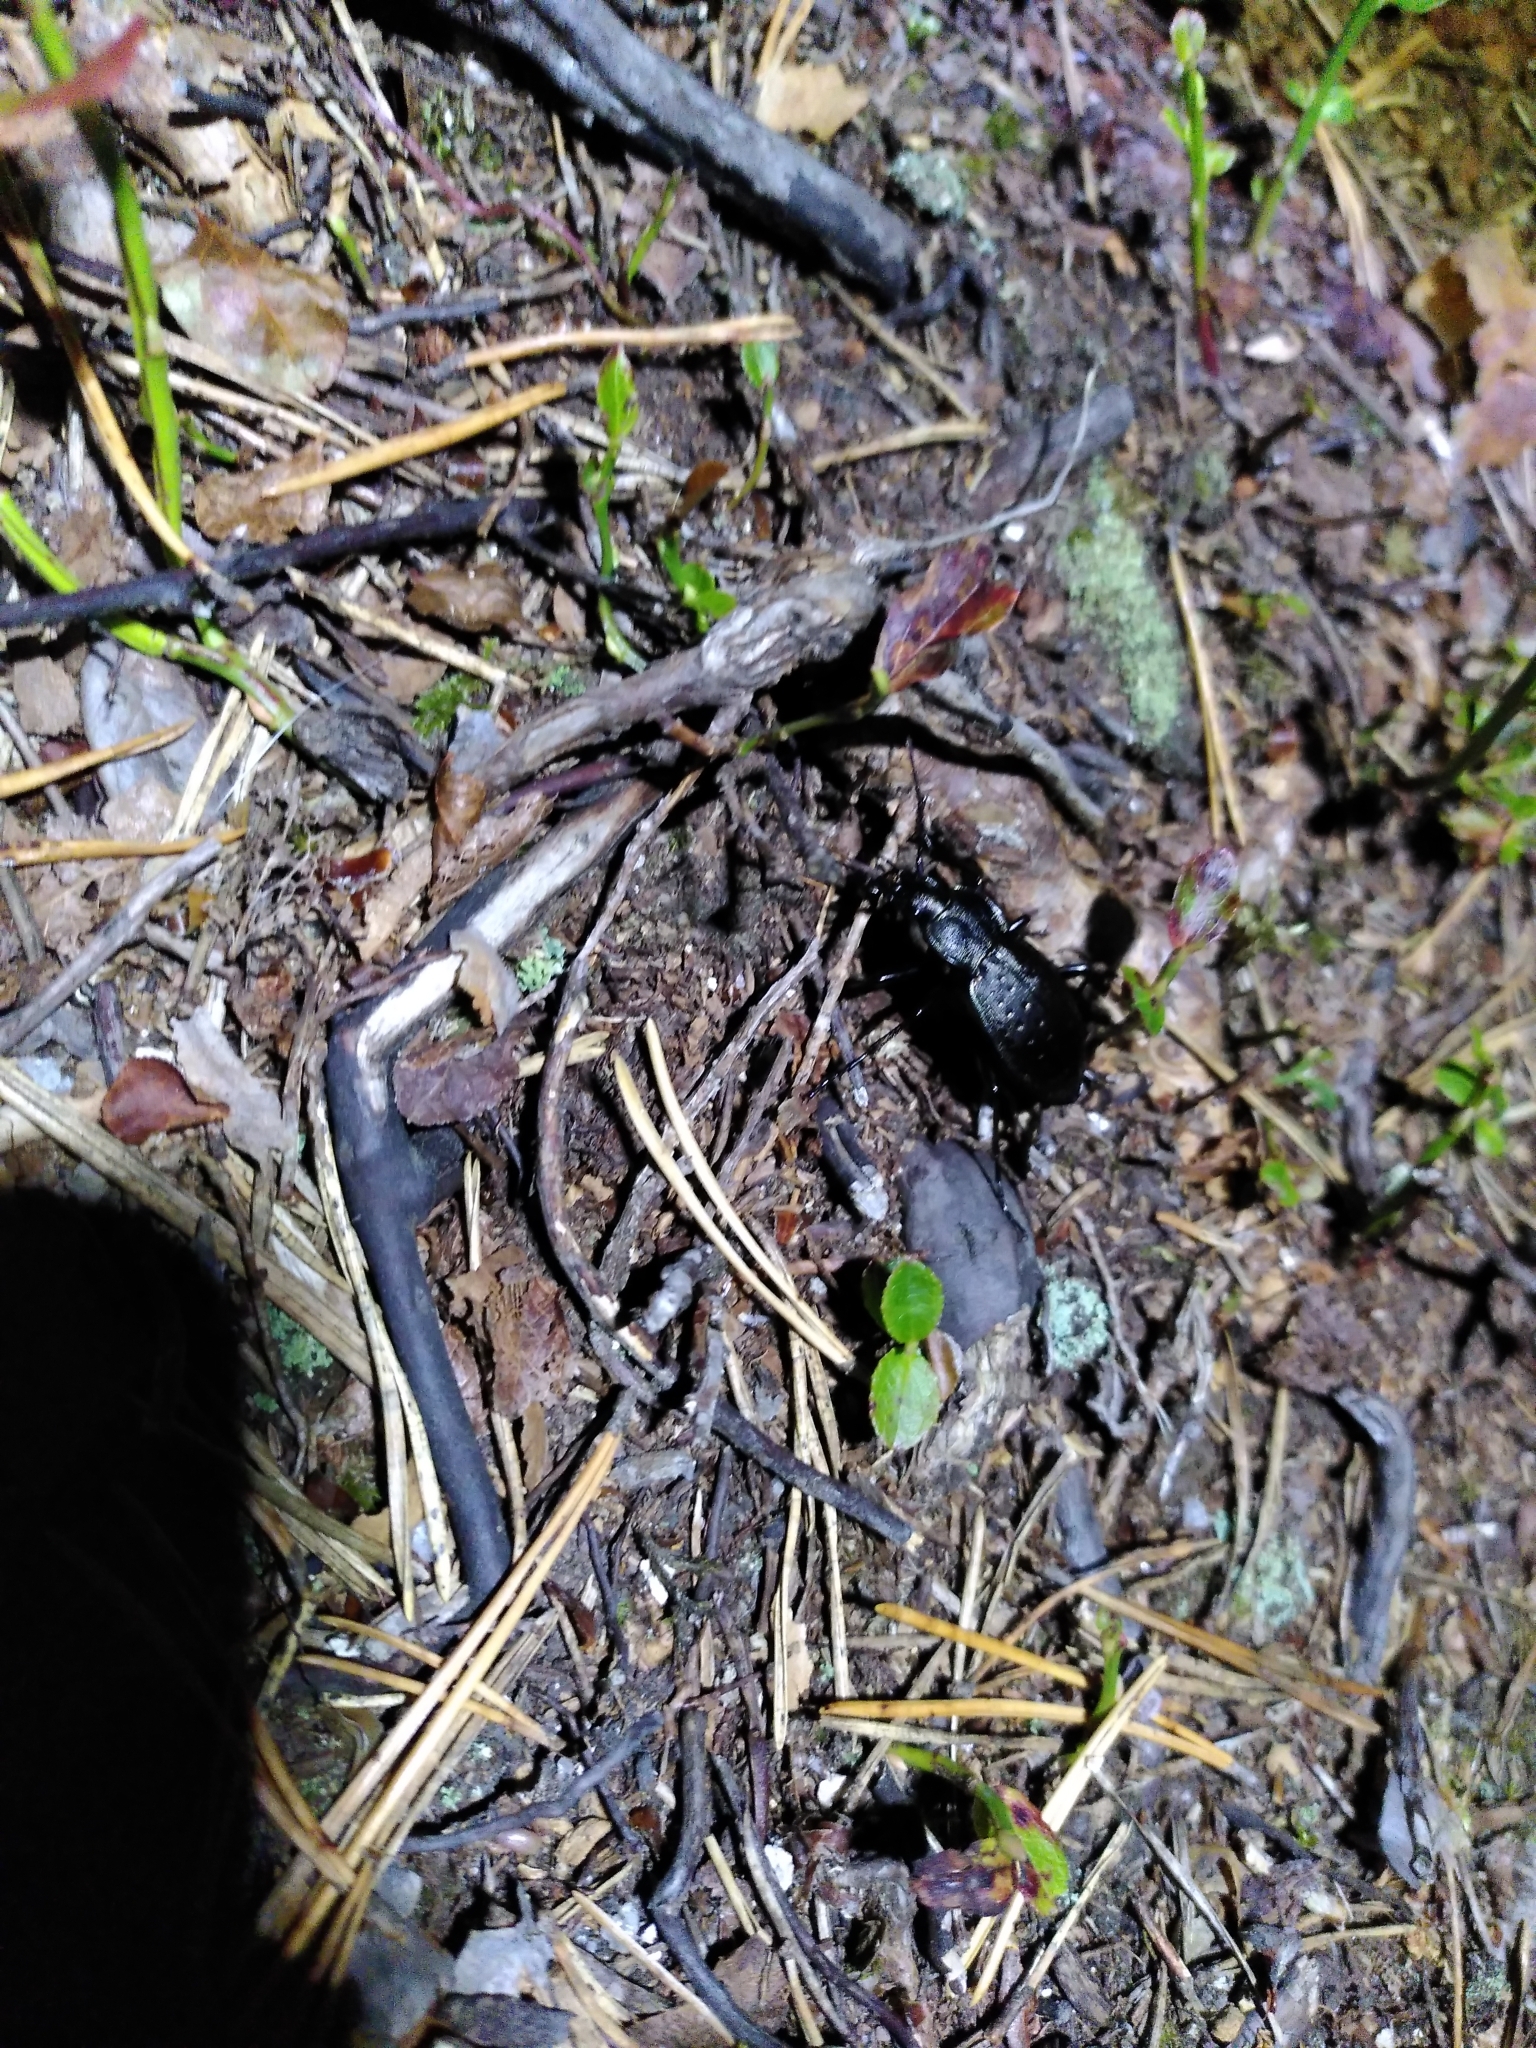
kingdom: Animalia
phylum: Arthropoda
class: Insecta
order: Coleoptera
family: Carabidae
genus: Carabus
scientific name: Carabus hortensis
